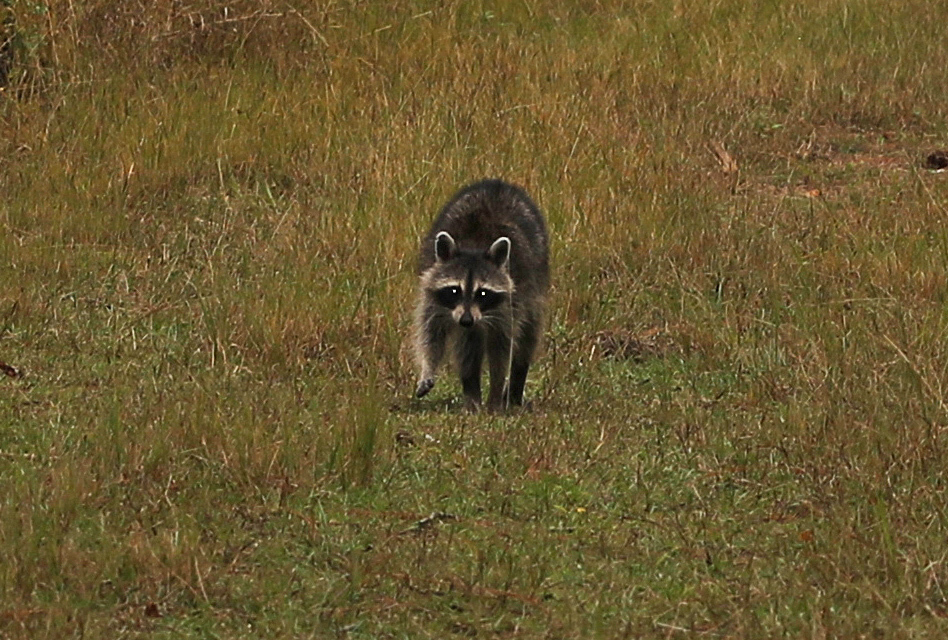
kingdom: Animalia
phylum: Chordata
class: Mammalia
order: Carnivora
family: Procyonidae
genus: Procyon
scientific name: Procyon lotor
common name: Raccoon
